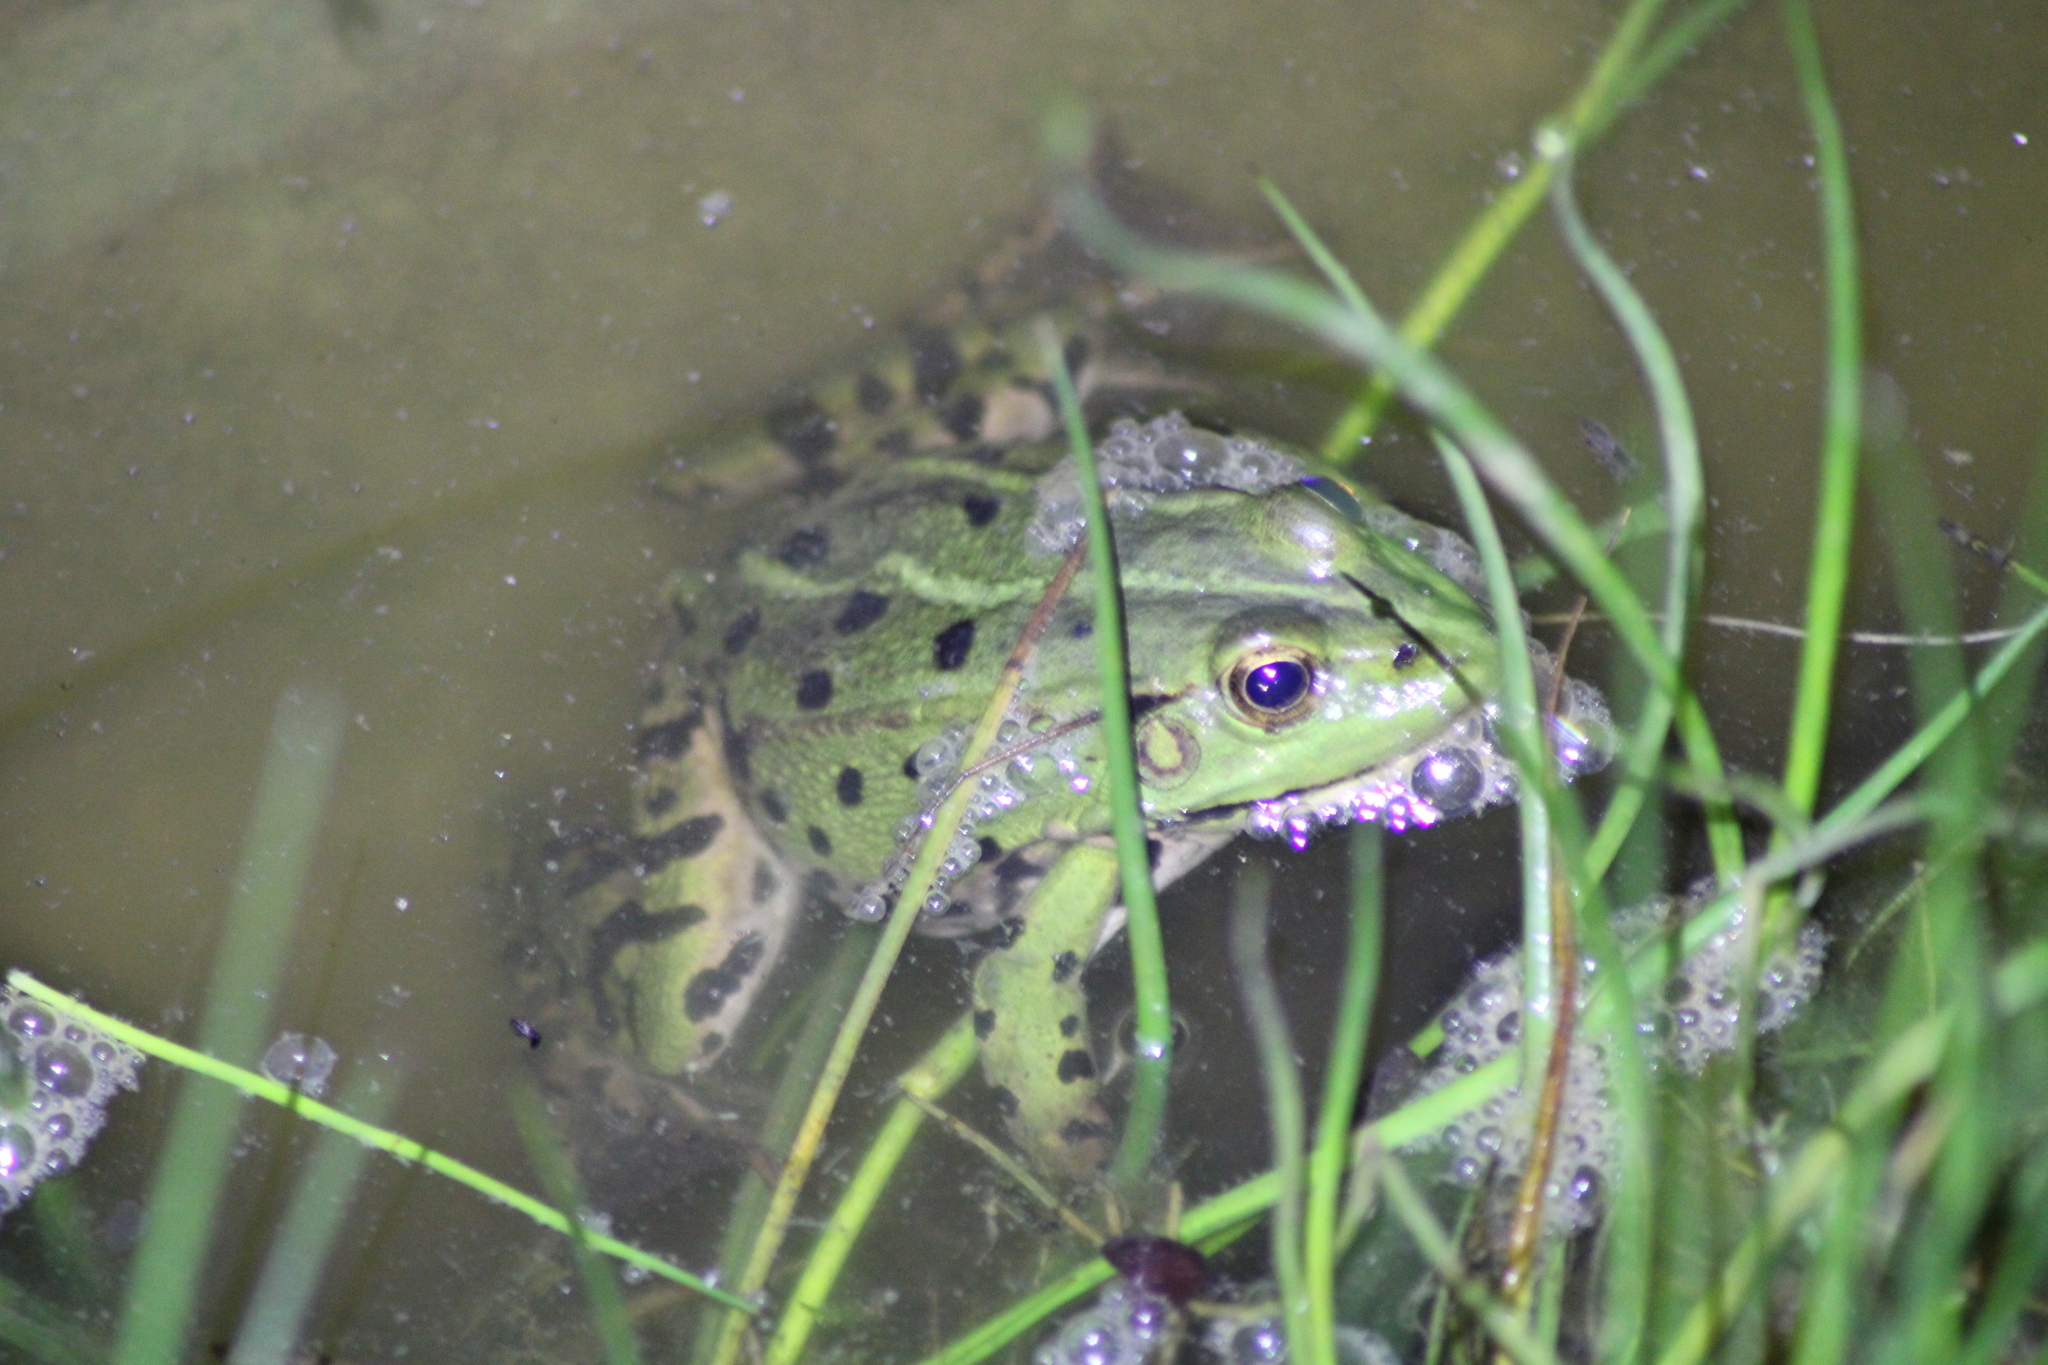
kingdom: Animalia
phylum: Chordata
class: Amphibia
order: Anura
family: Ranidae
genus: Pelophylax
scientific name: Pelophylax
